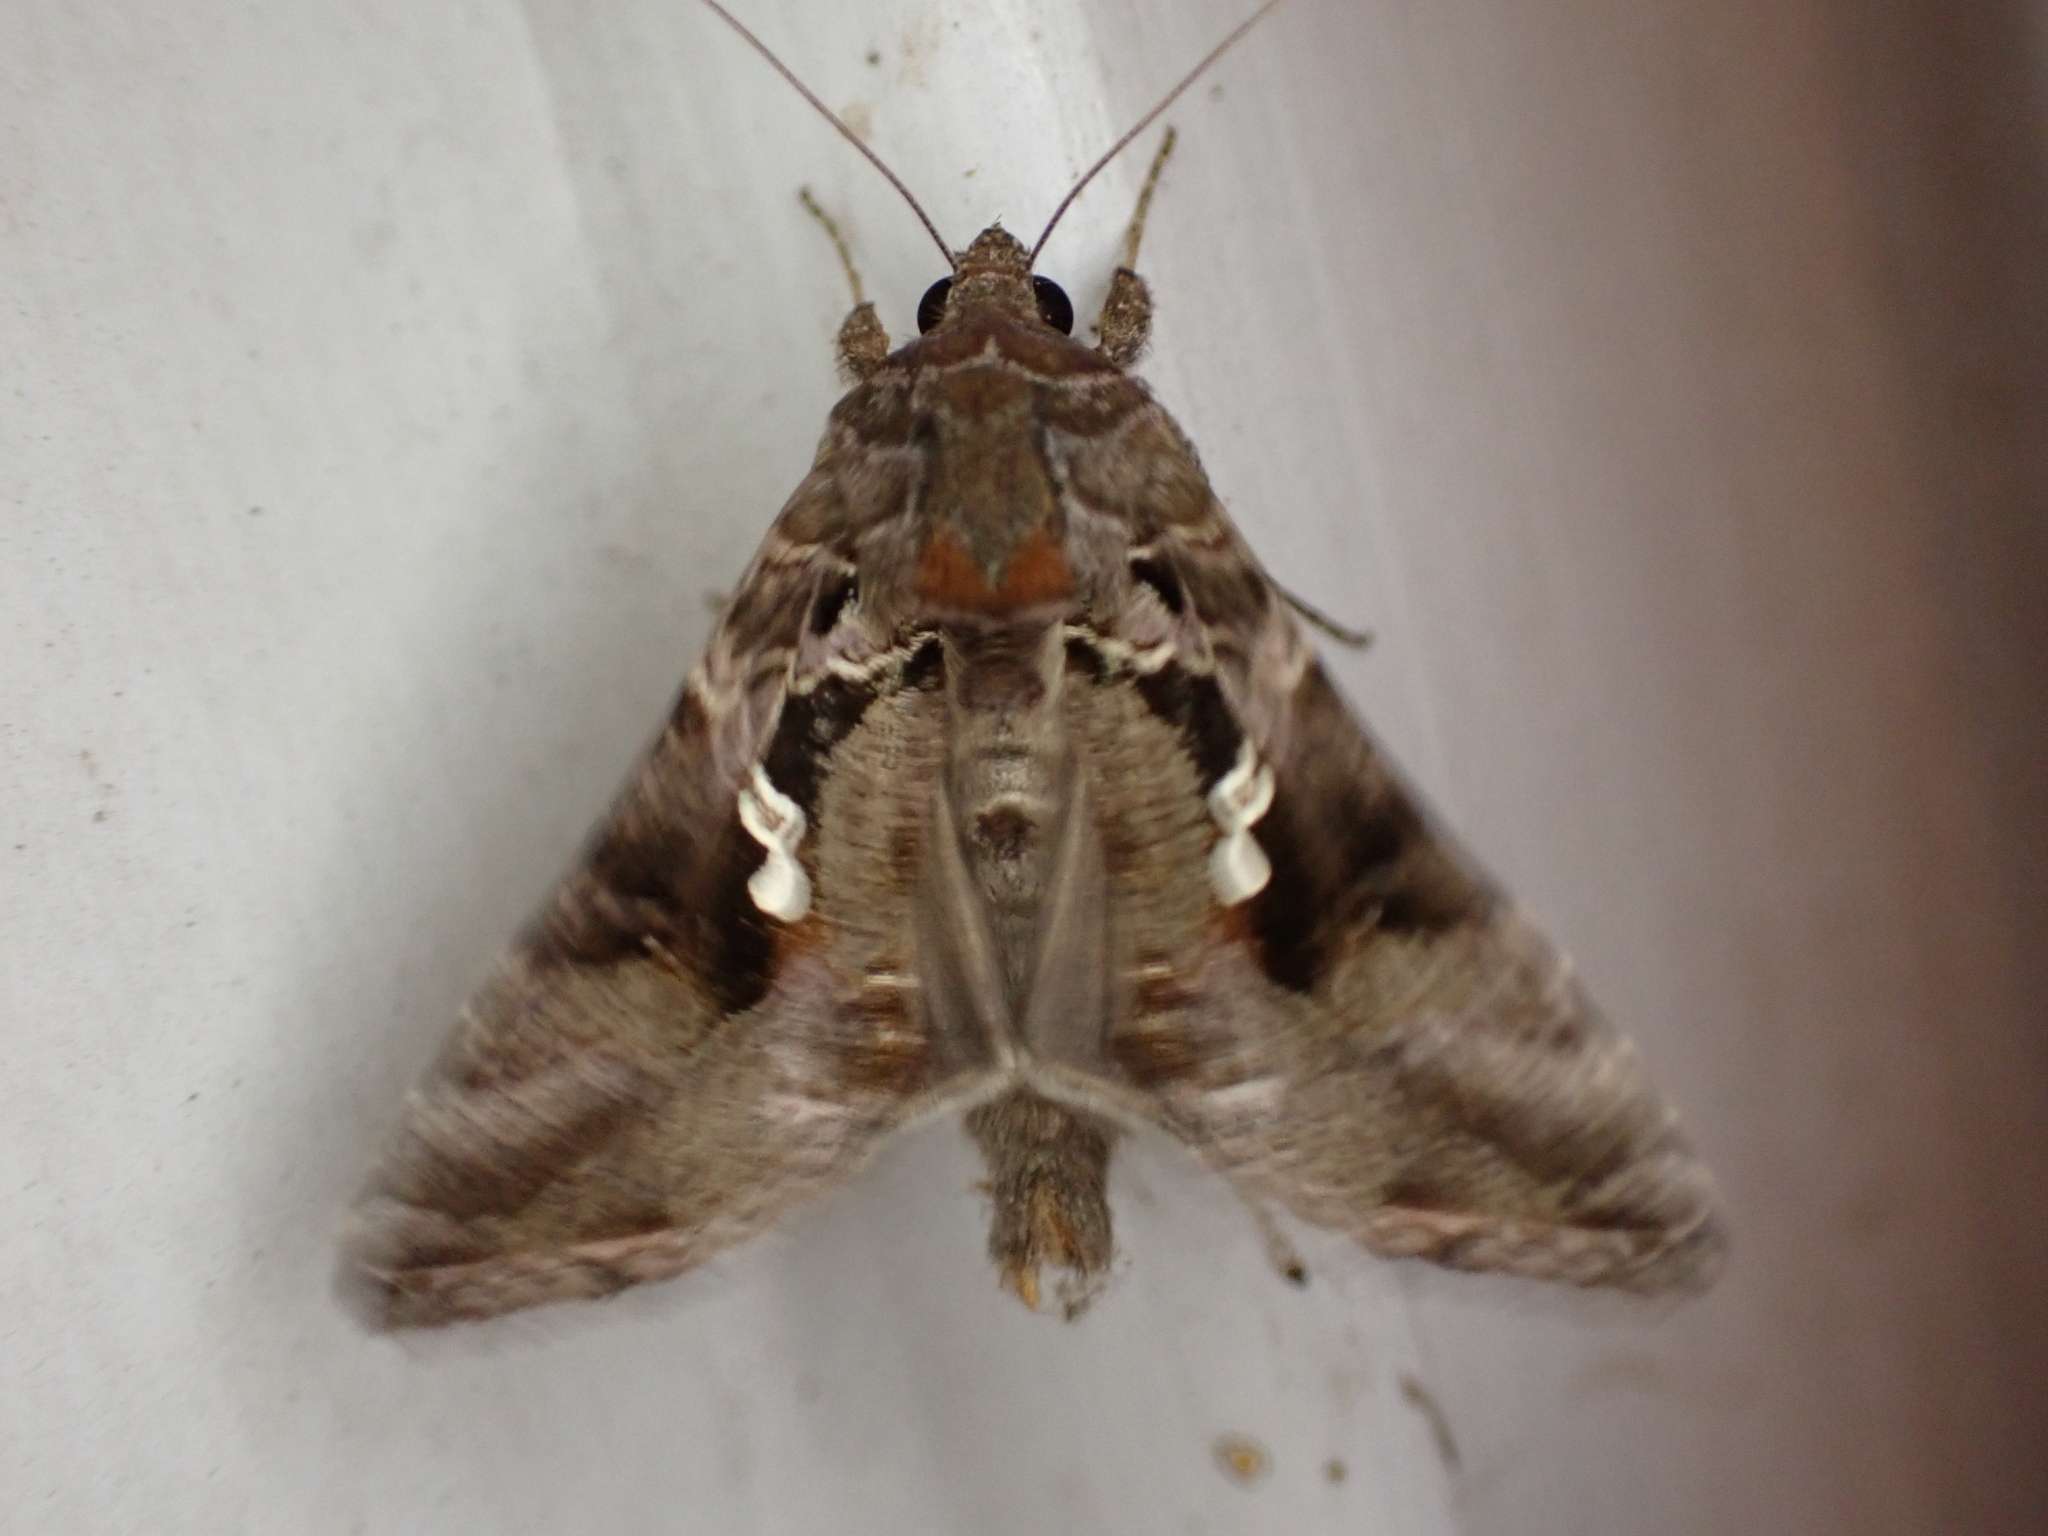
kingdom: Animalia
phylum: Arthropoda
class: Insecta
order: Lepidoptera
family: Noctuidae
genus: Chrysodeixis
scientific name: Chrysodeixis includens
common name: Cutworm moth
